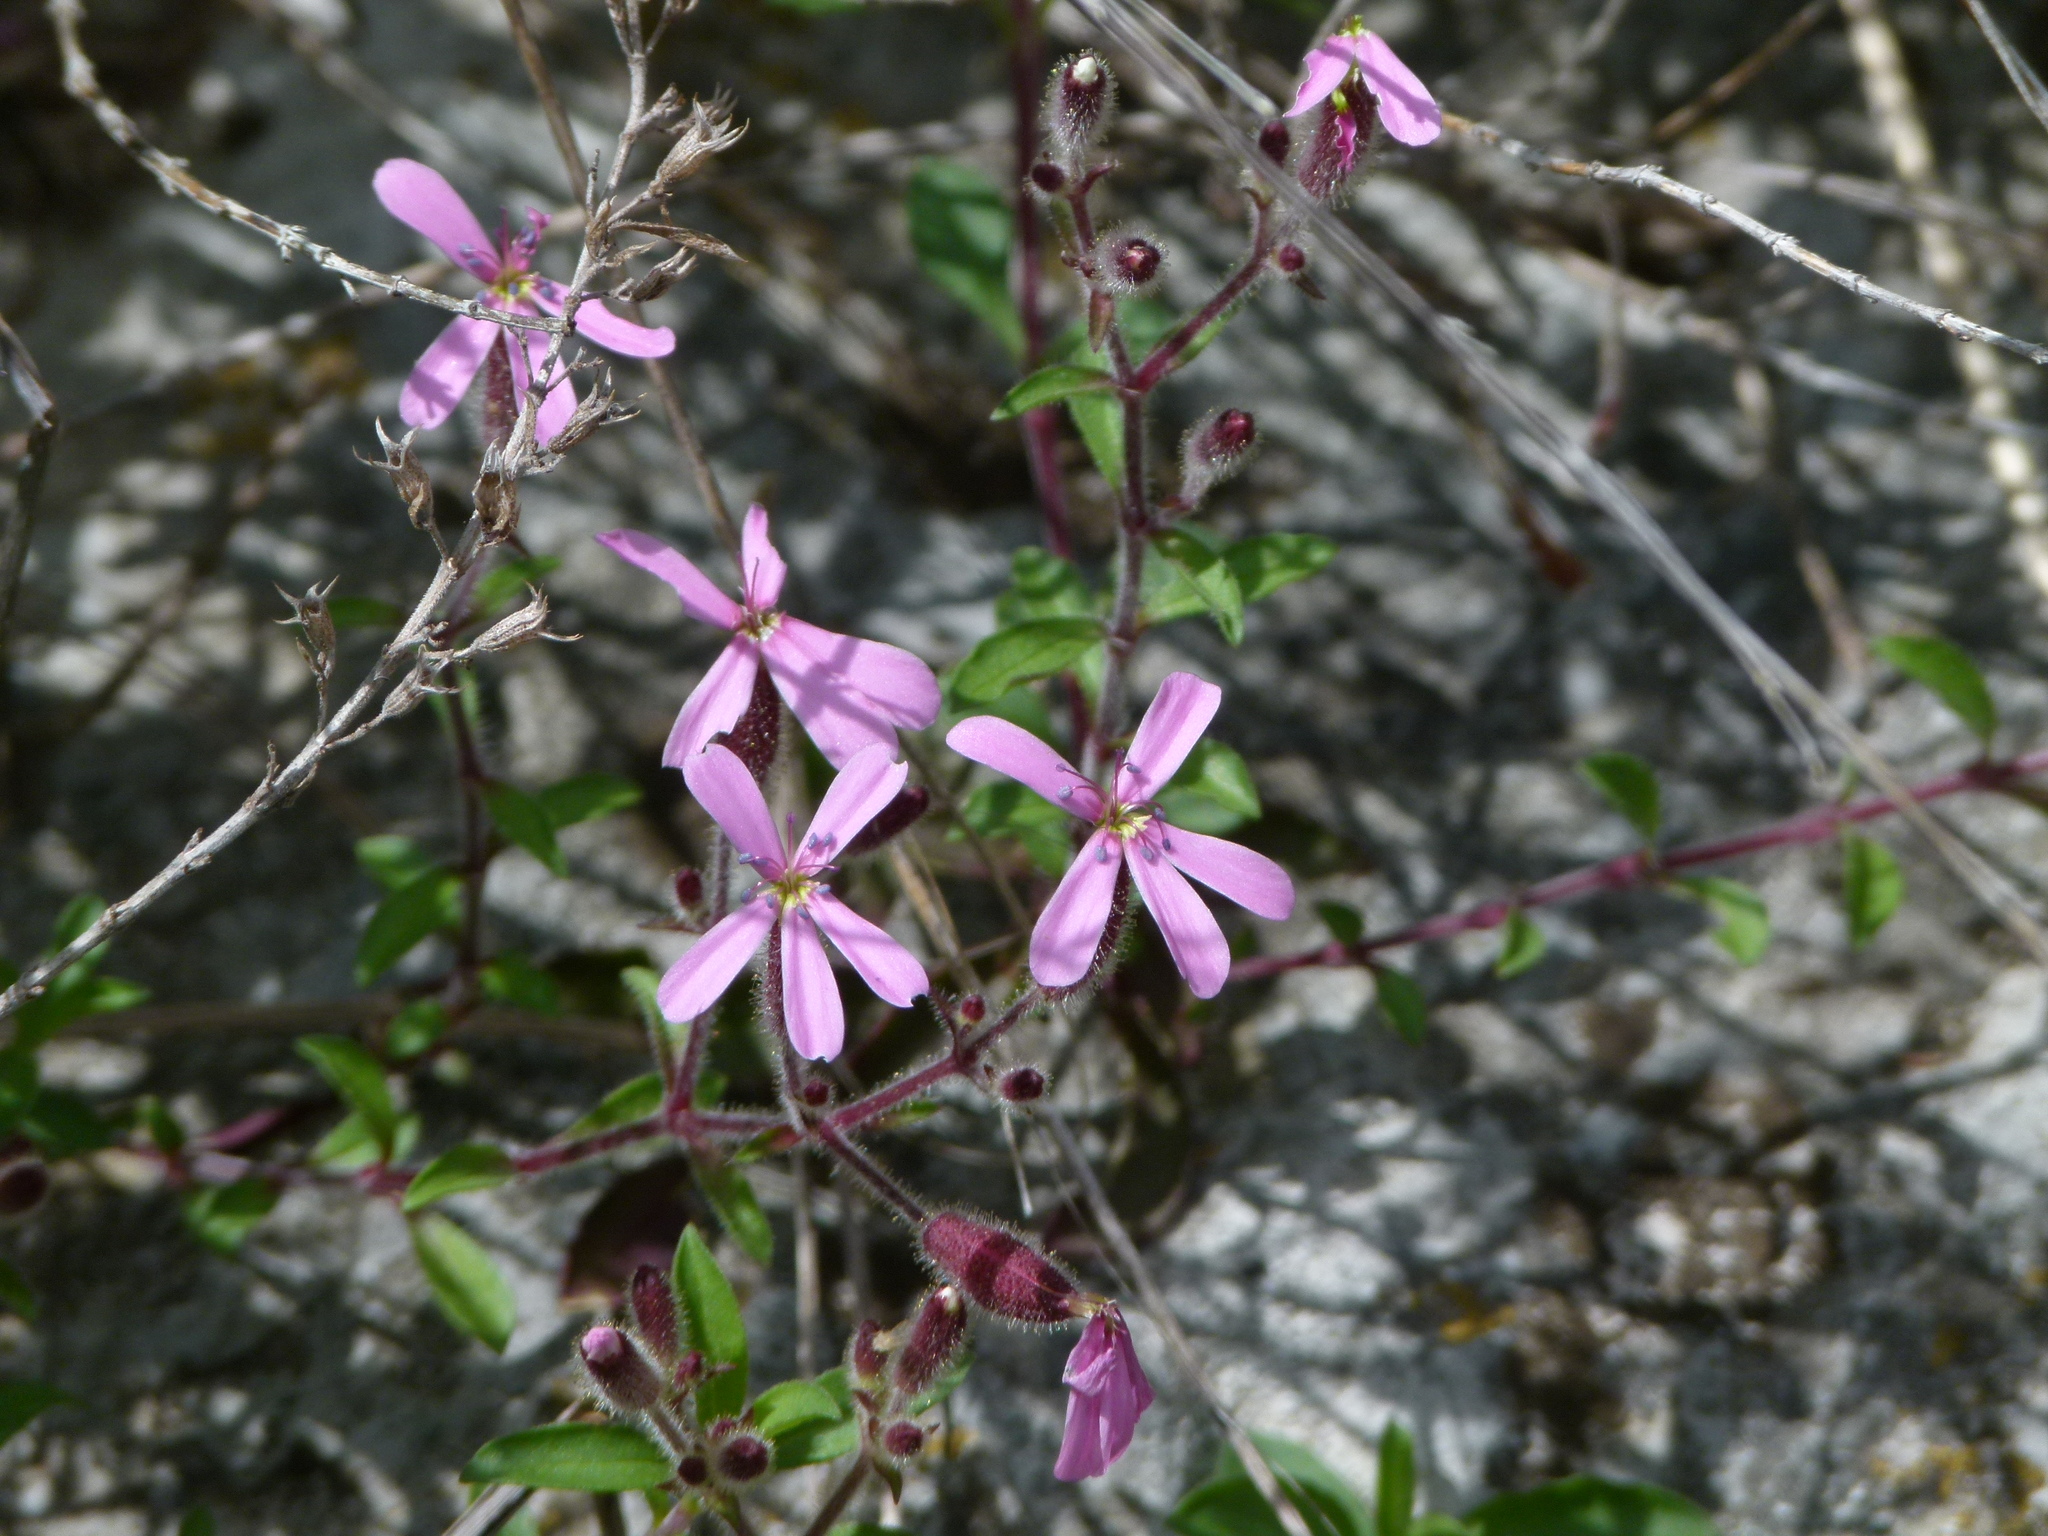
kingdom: Plantae
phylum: Tracheophyta
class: Magnoliopsida
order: Caryophyllales
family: Caryophyllaceae
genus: Saponaria
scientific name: Saponaria ocymoides
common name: Rock soapwort
